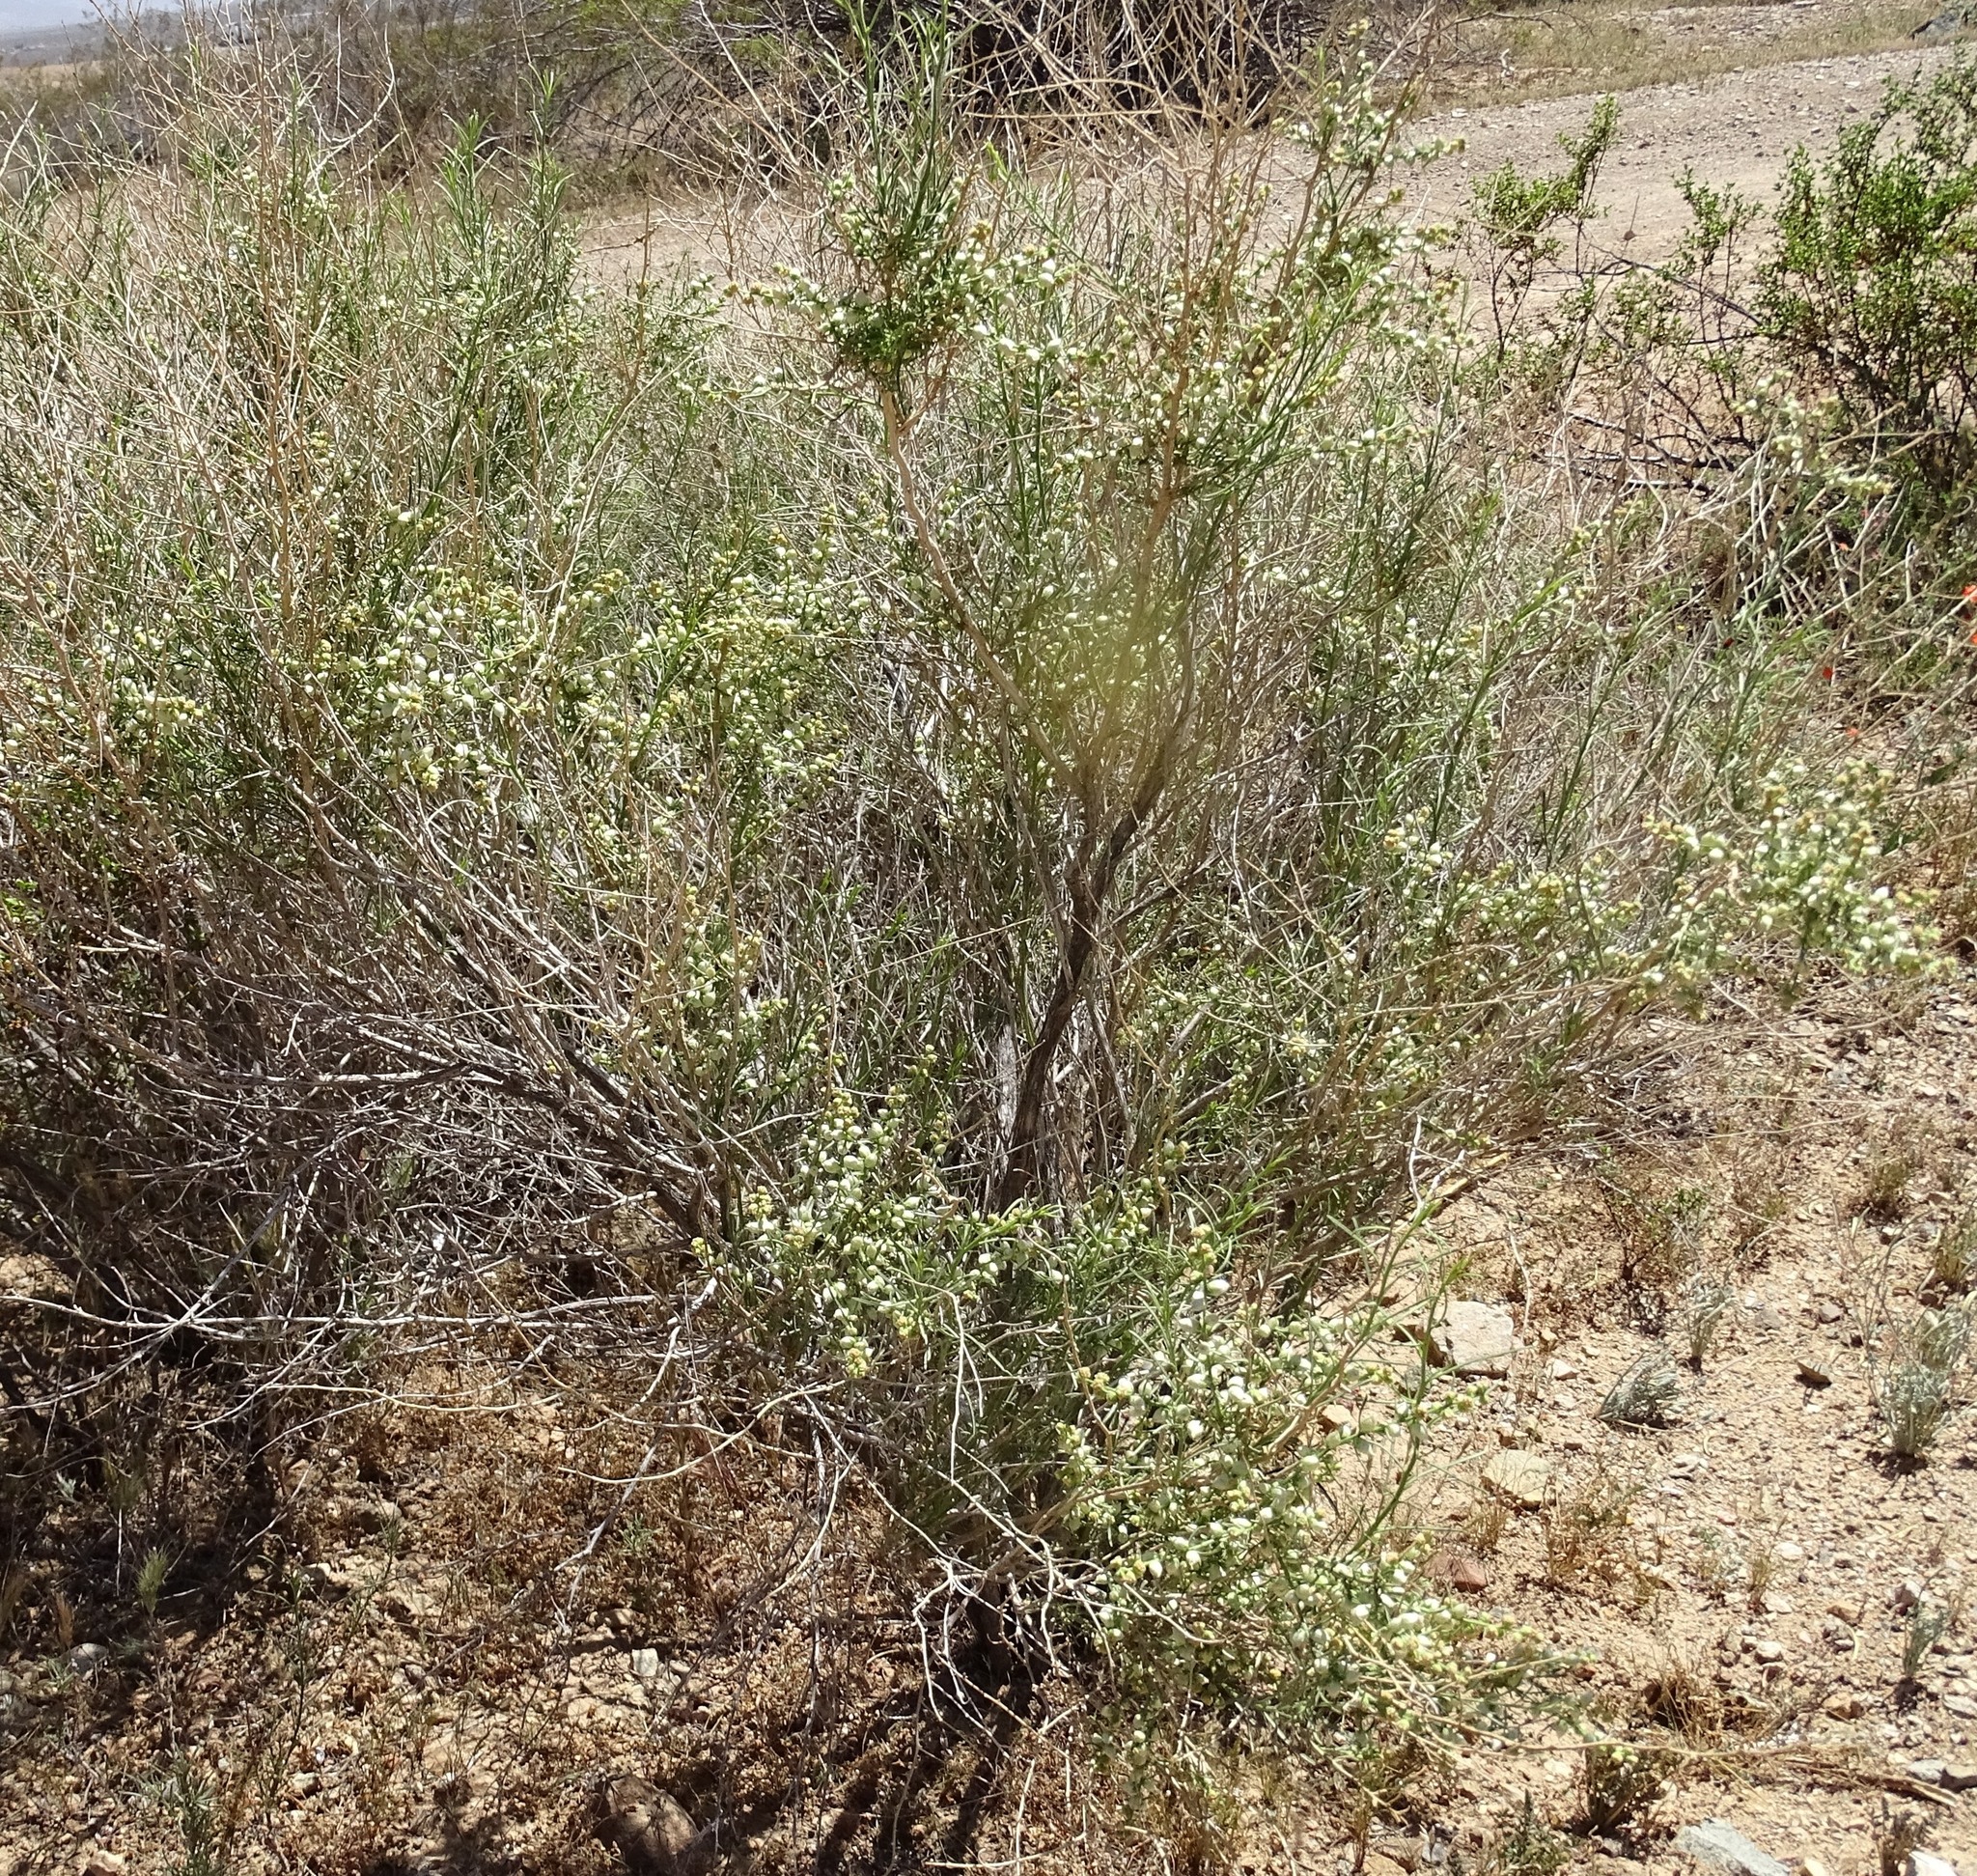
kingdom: Plantae
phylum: Tracheophyta
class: Magnoliopsida
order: Asterales
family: Asteraceae
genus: Ambrosia
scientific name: Ambrosia salsola
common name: Burrobrush
